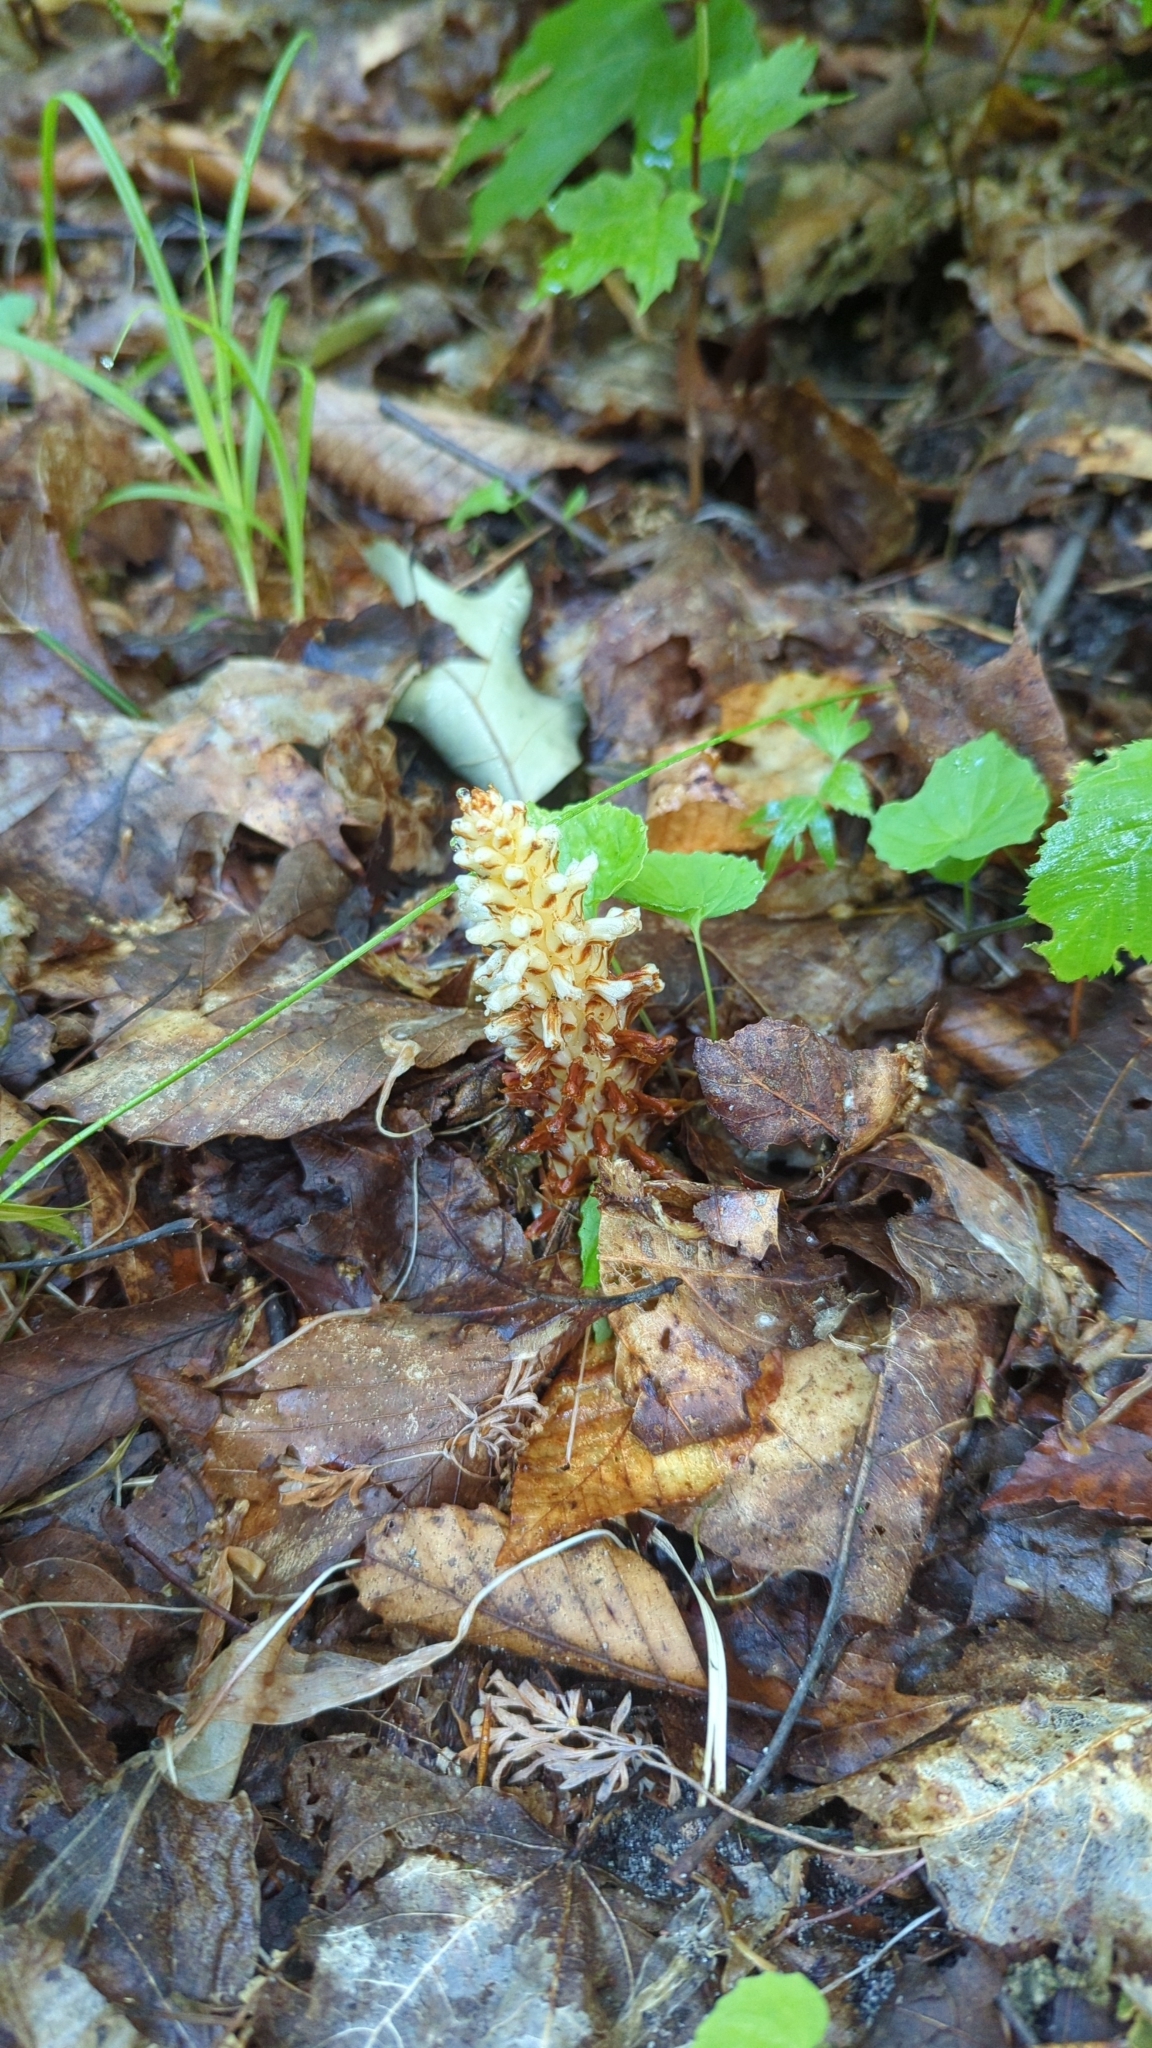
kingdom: Plantae
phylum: Tracheophyta
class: Magnoliopsida
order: Lamiales
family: Orobanchaceae
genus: Conopholis
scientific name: Conopholis americana
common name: American cancer-root
